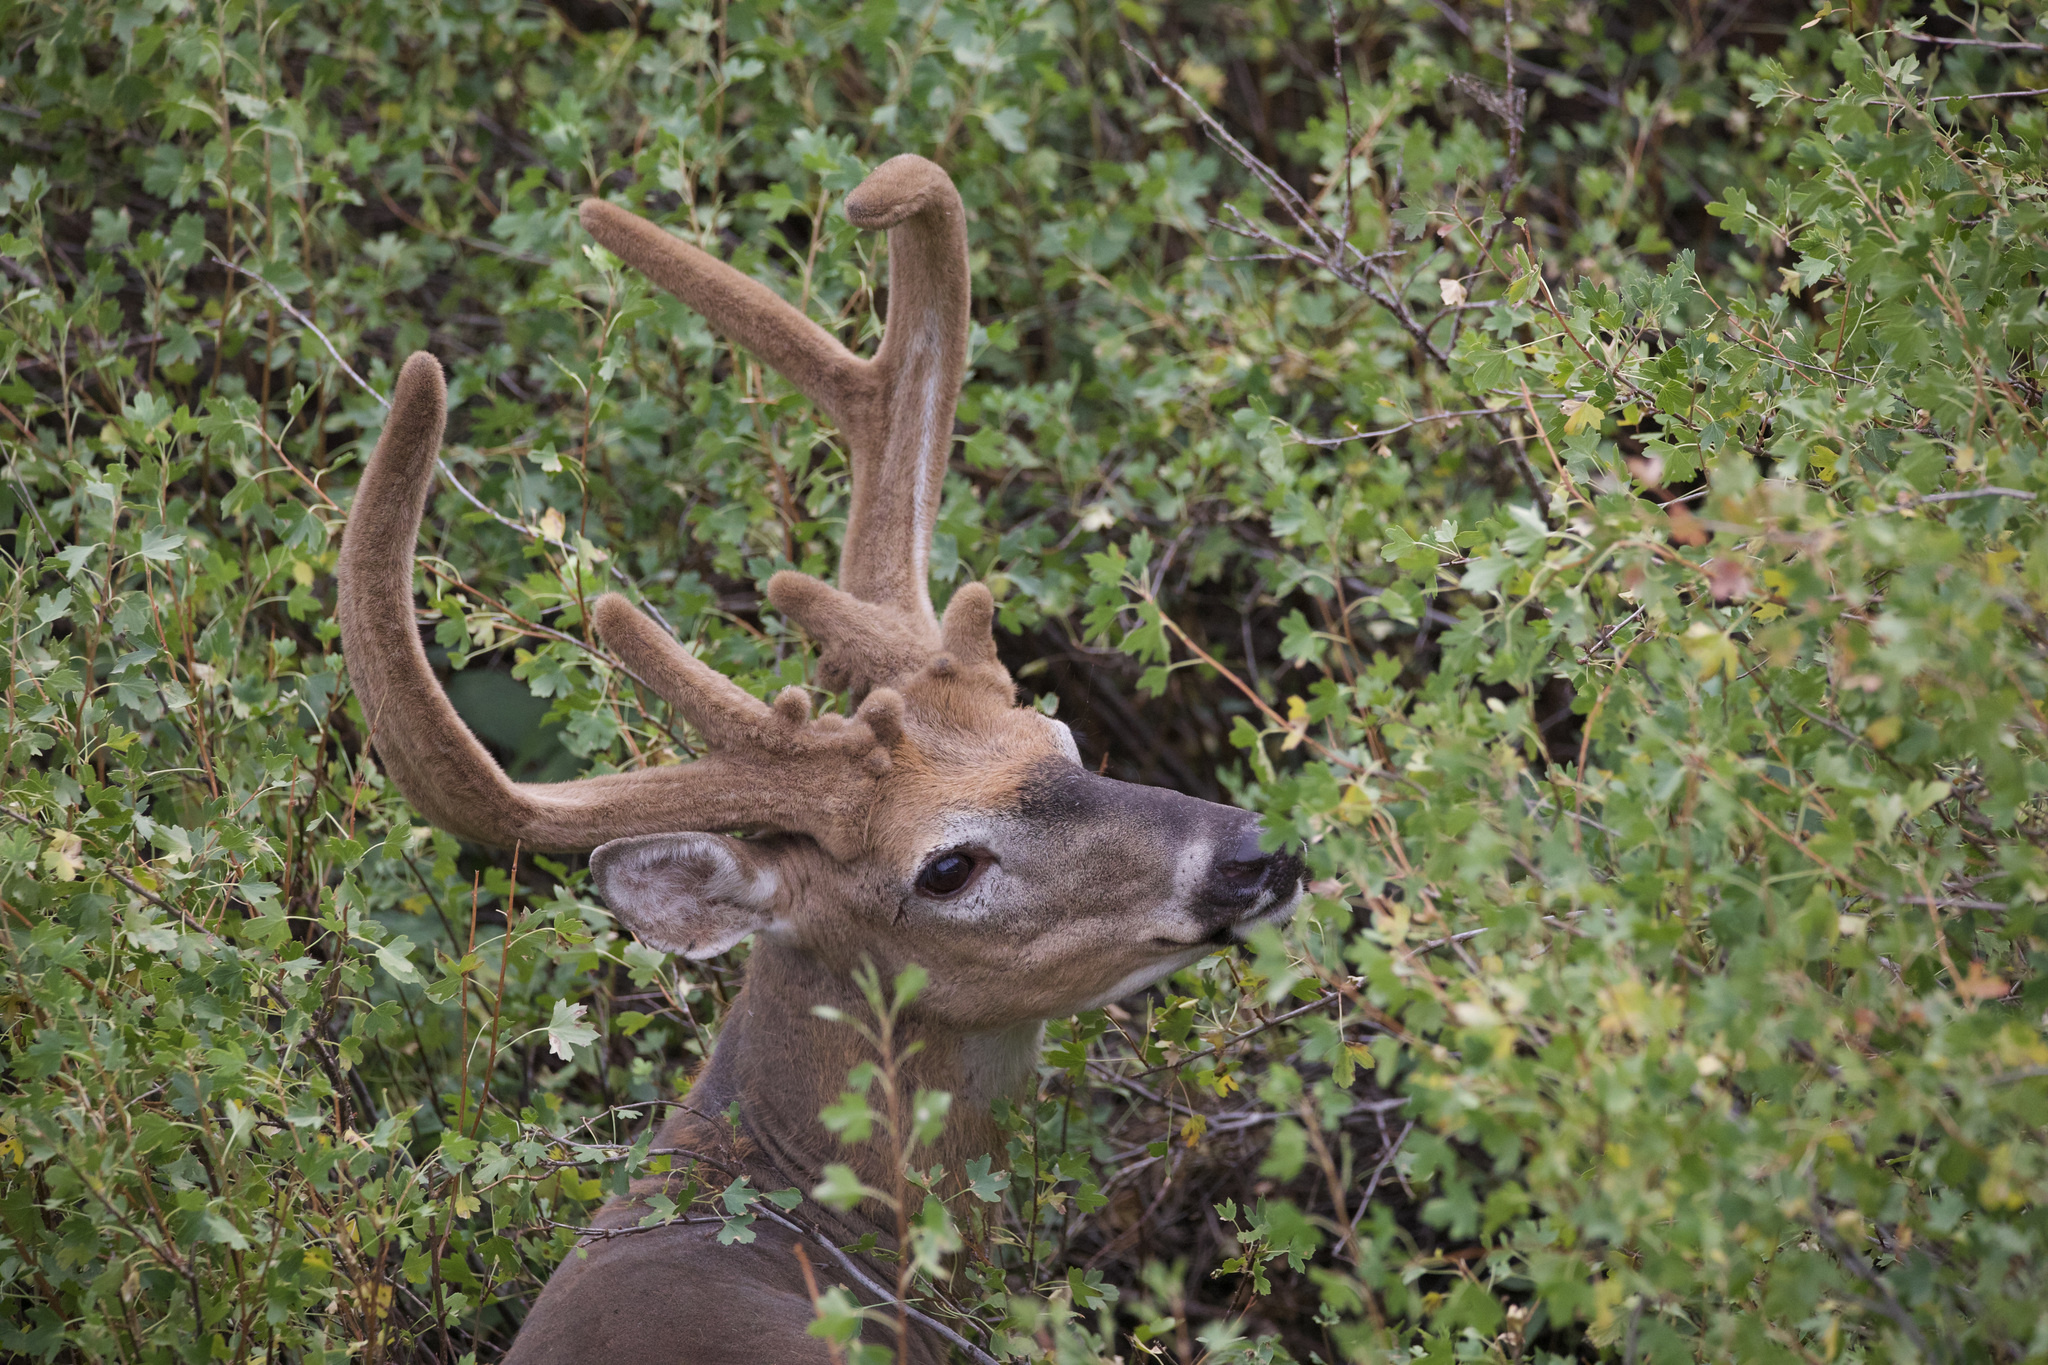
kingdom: Animalia
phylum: Chordata
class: Mammalia
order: Artiodactyla
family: Cervidae
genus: Odocoileus
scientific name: Odocoileus virginianus
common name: White-tailed deer
